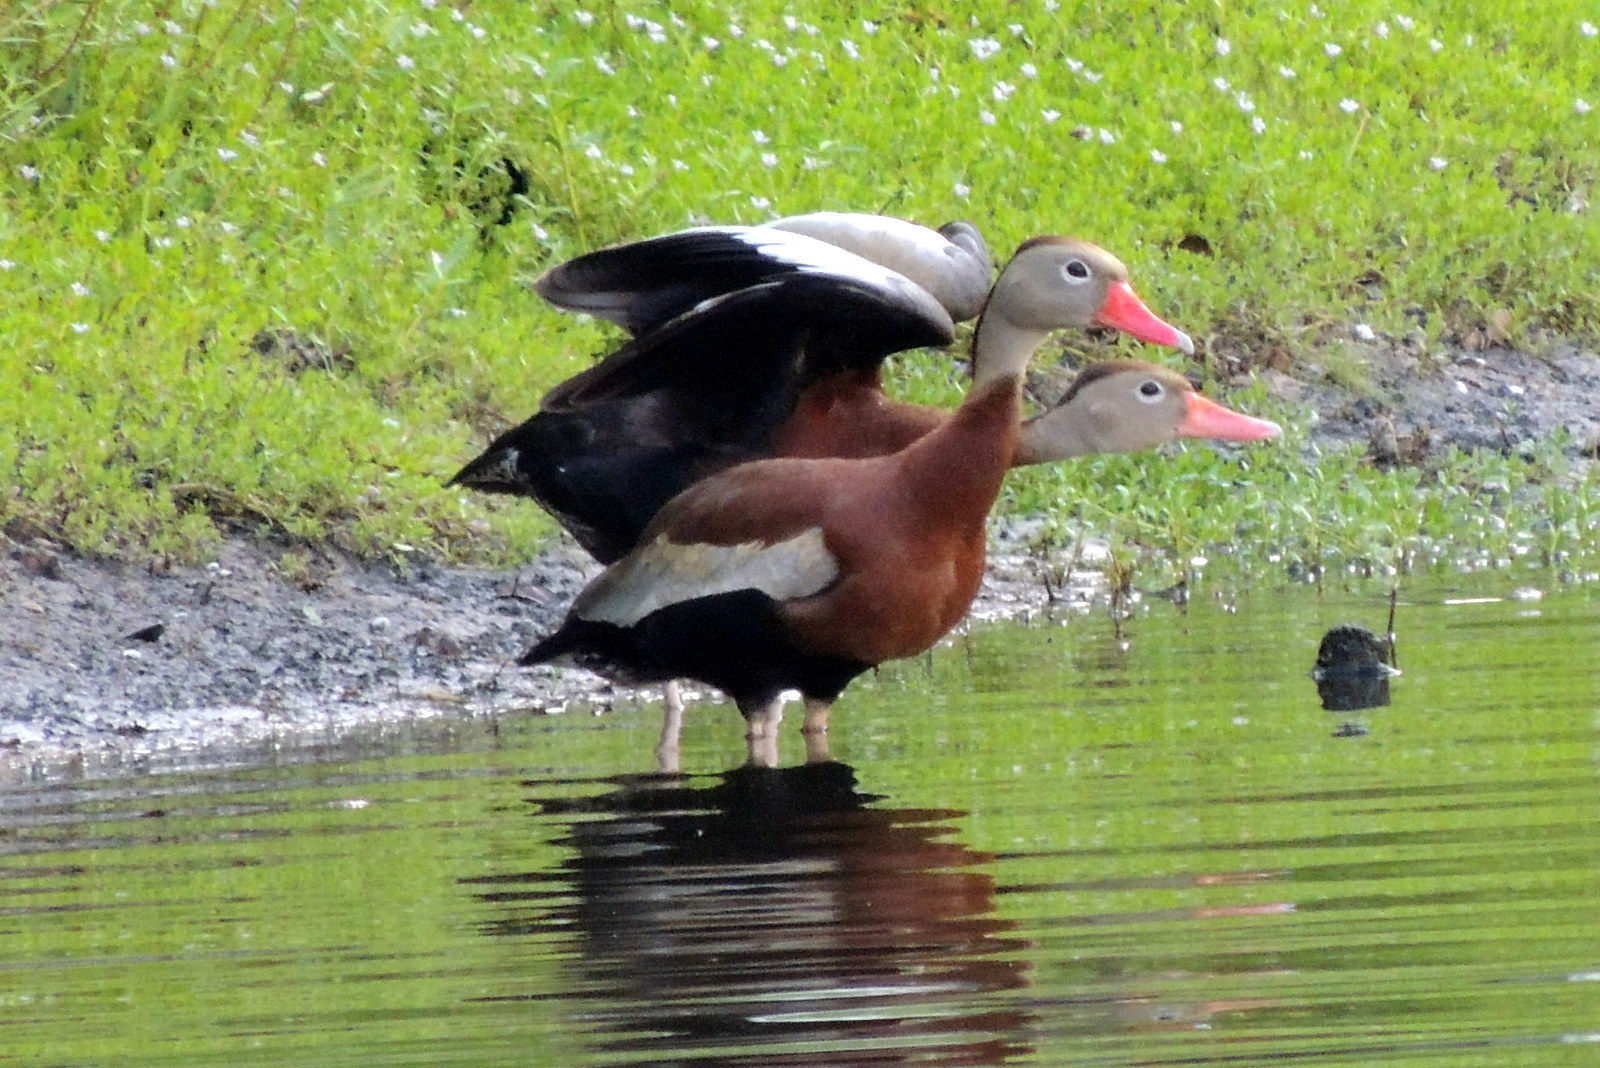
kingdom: Animalia
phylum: Chordata
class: Aves
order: Anseriformes
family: Anatidae
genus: Dendrocygna
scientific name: Dendrocygna autumnalis
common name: Black-bellied whistling duck
